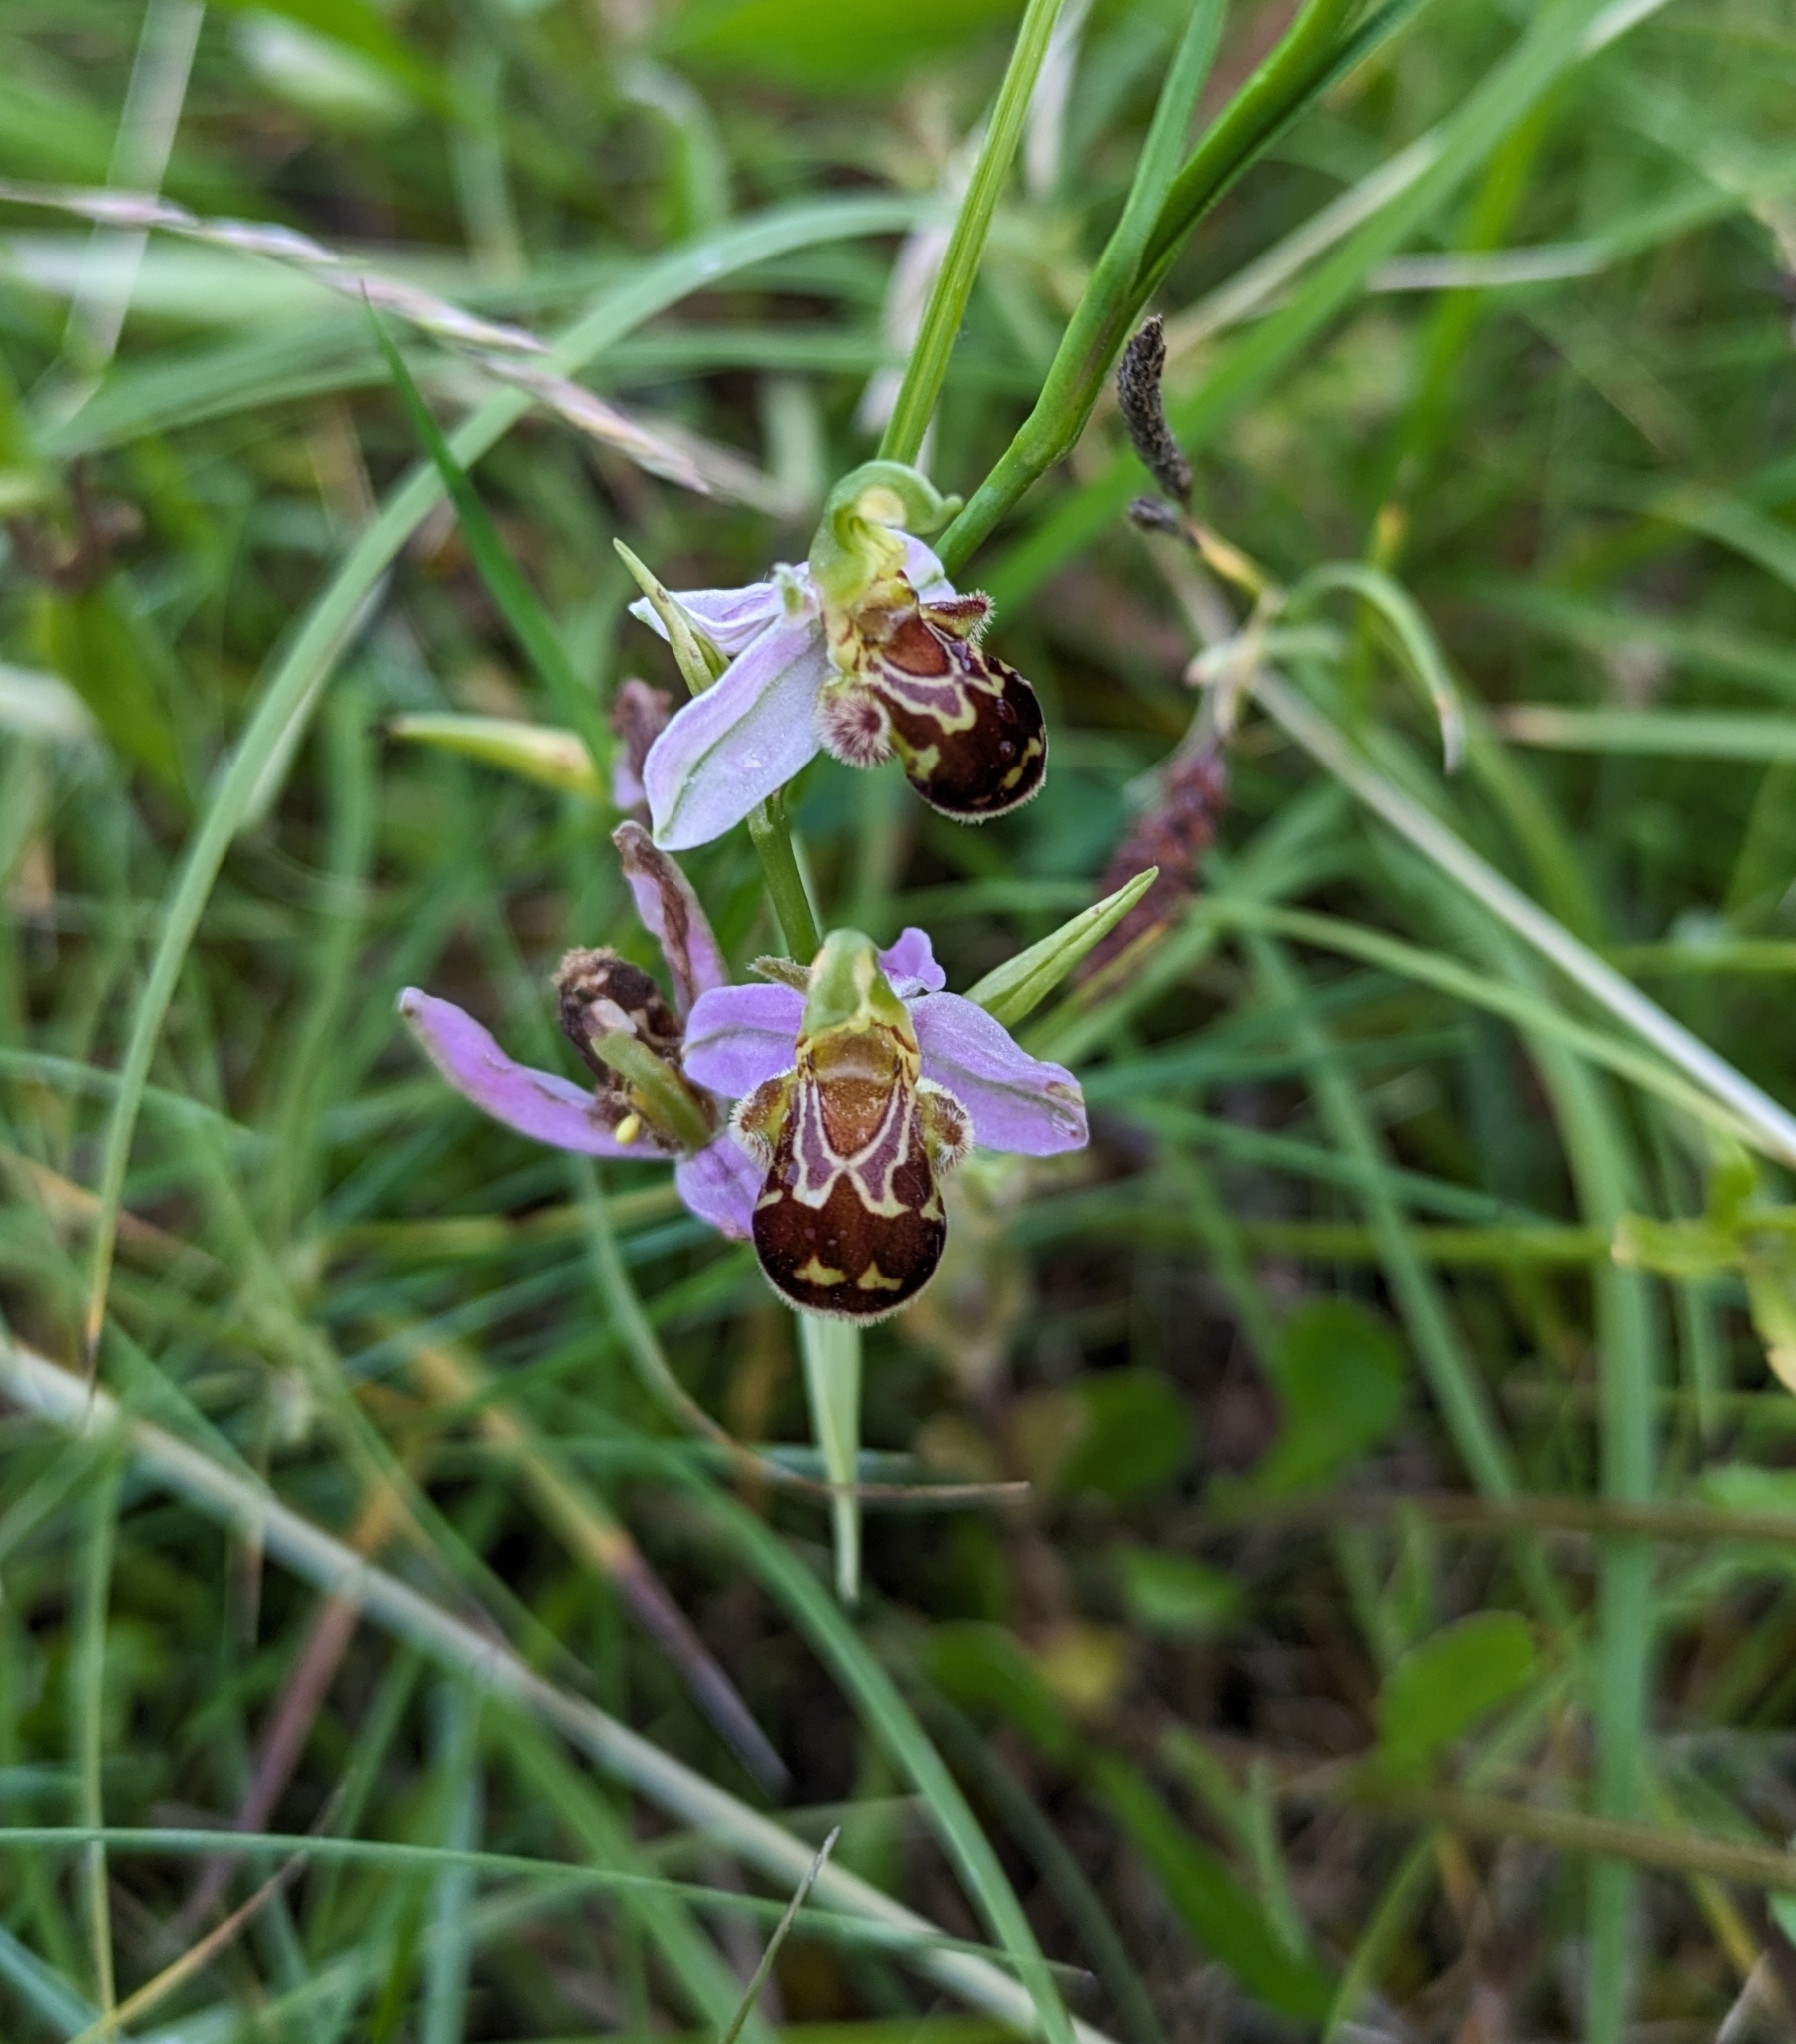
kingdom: Plantae
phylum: Tracheophyta
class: Liliopsida
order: Asparagales
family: Orchidaceae
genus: Ophrys
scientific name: Ophrys apifera
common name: Bee orchid
